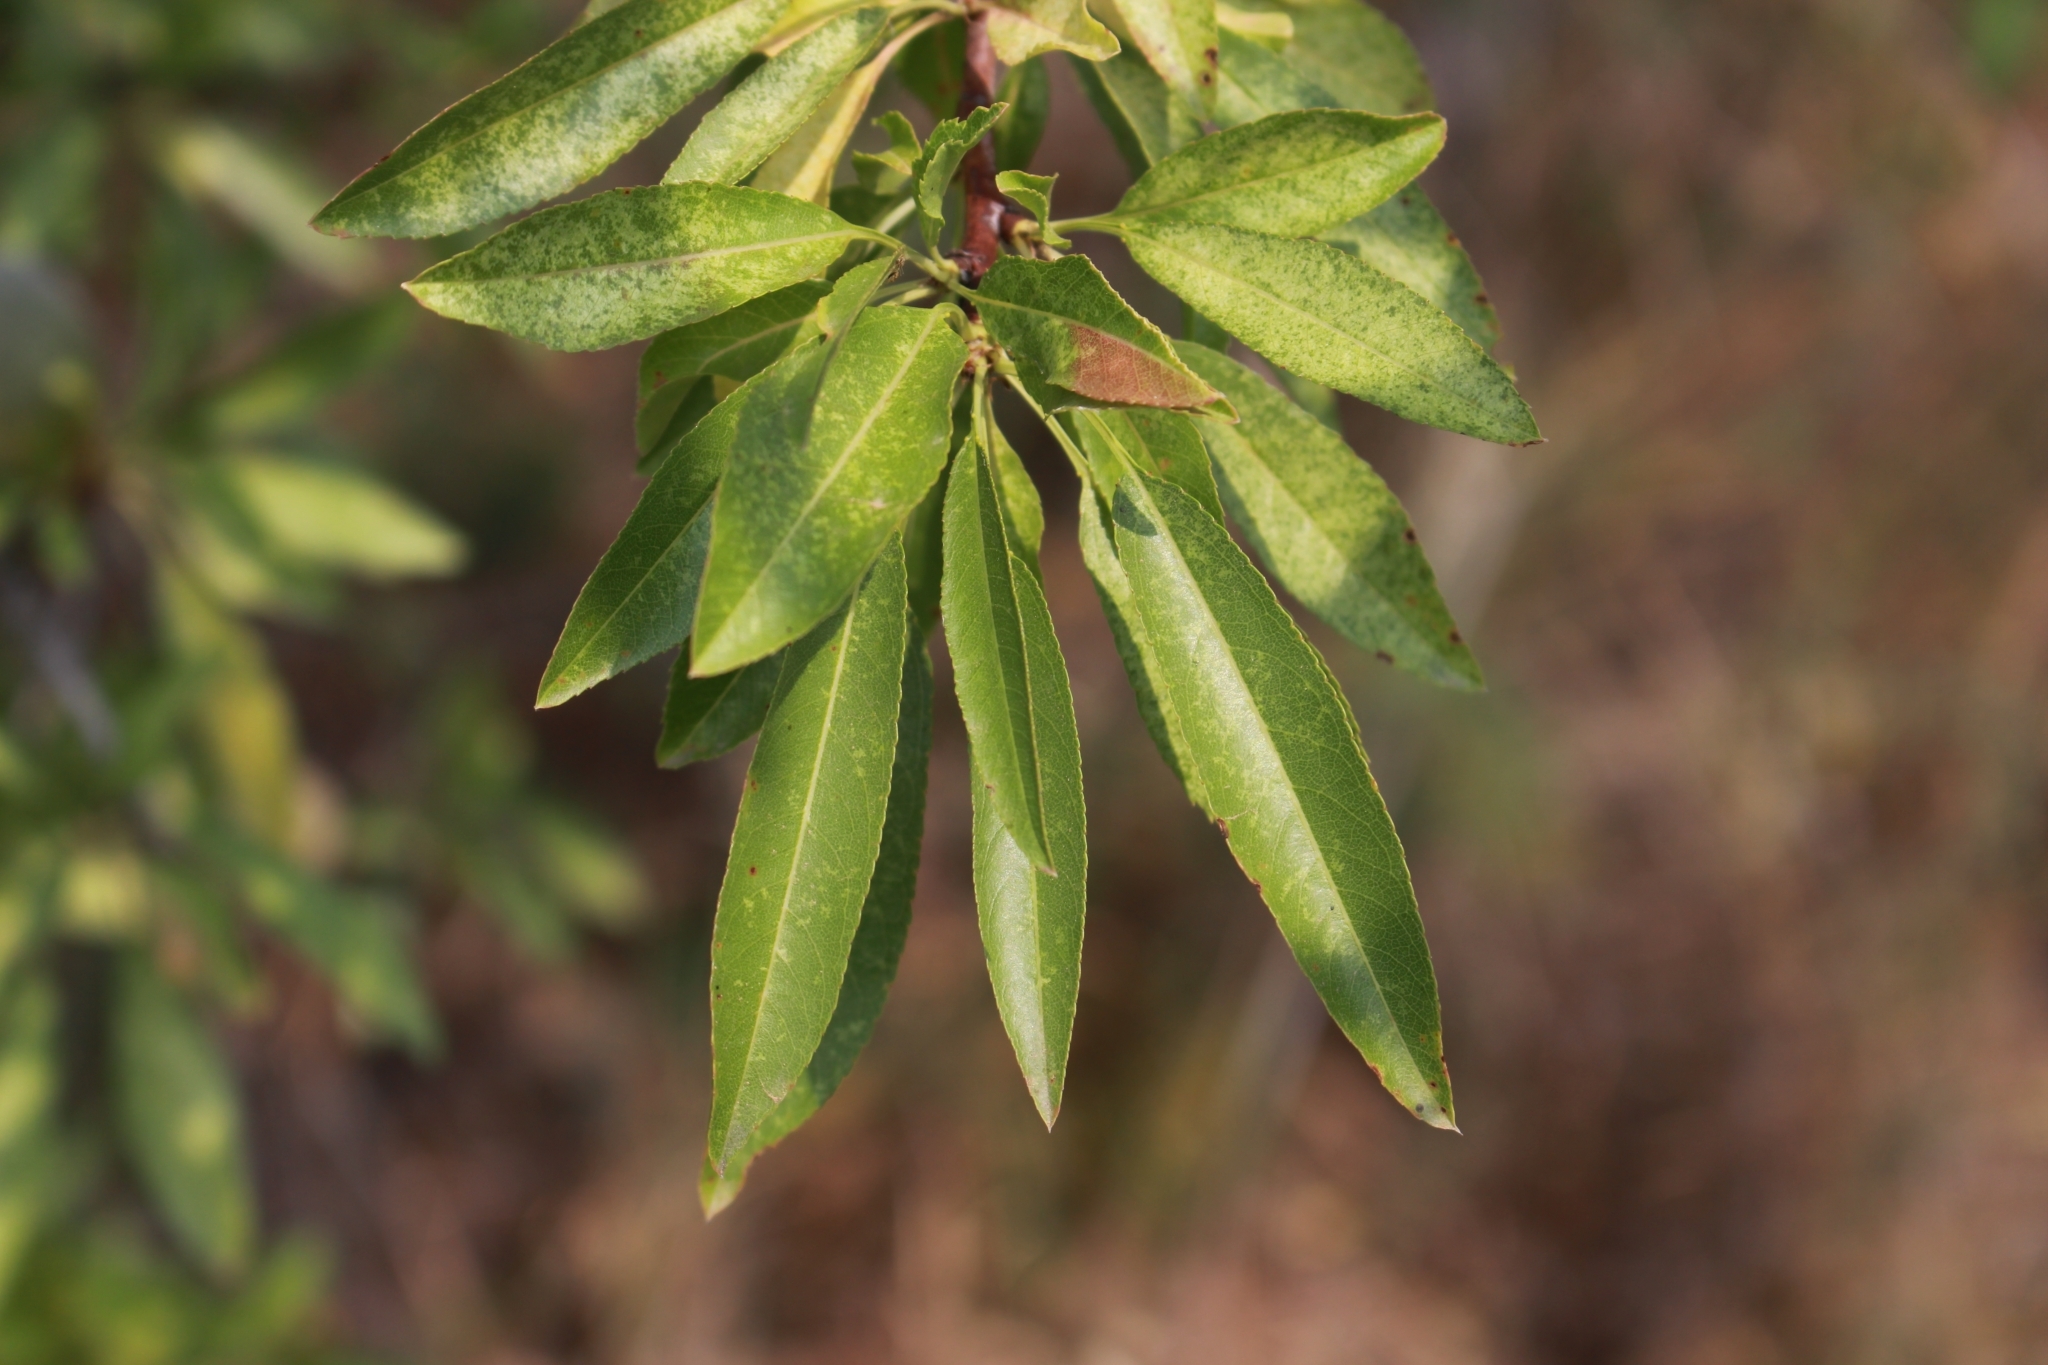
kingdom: Plantae
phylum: Tracheophyta
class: Magnoliopsida
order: Rosales
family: Rosaceae
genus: Prunus
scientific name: Prunus amygdalus
